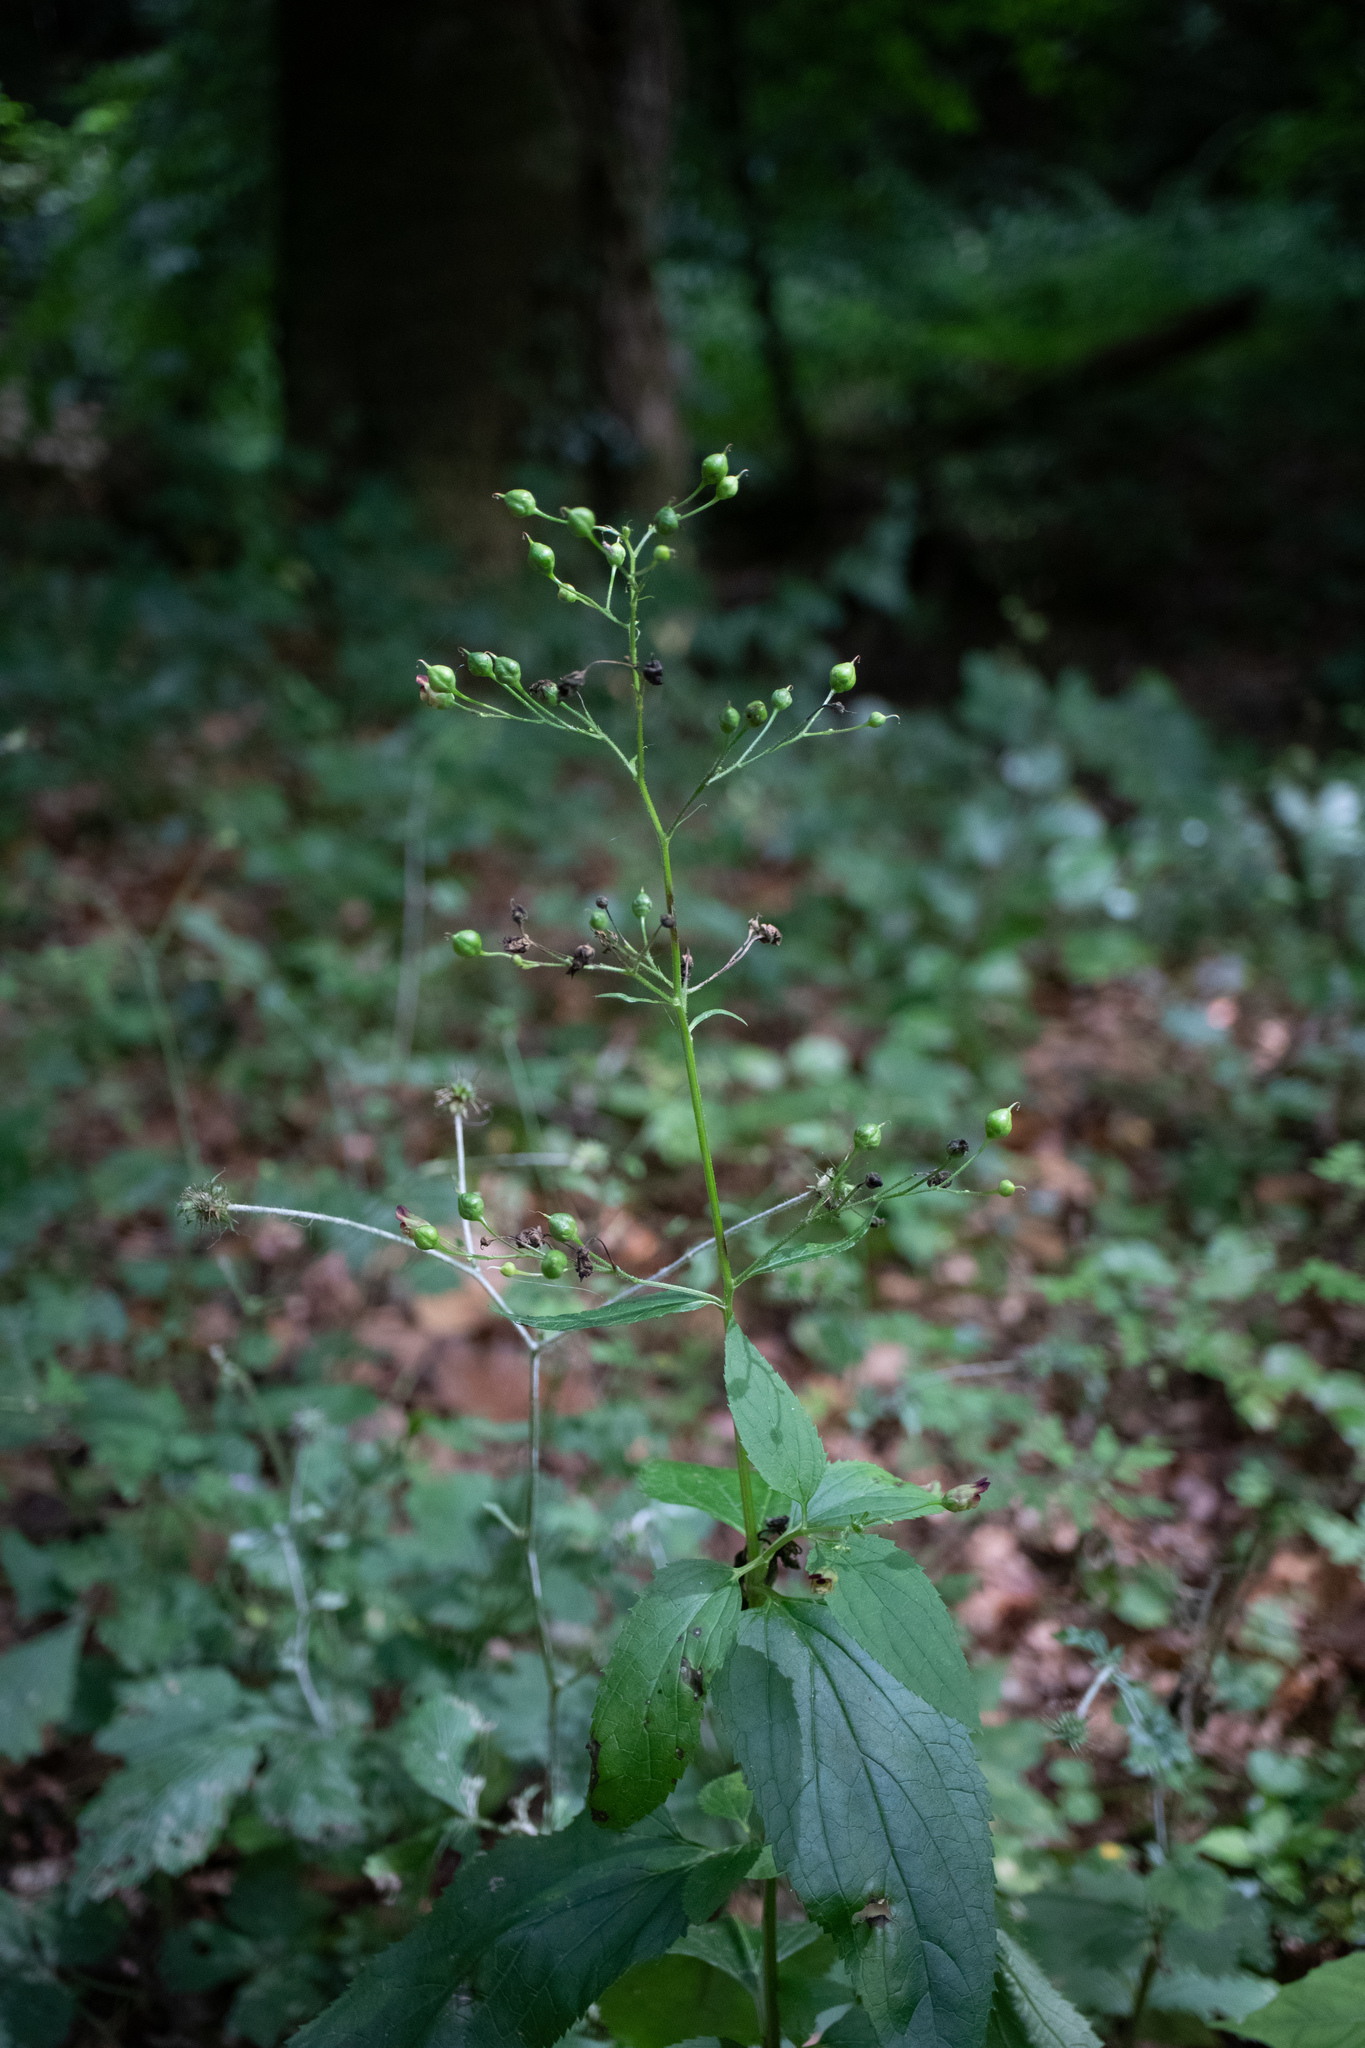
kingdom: Plantae
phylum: Tracheophyta
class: Magnoliopsida
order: Lamiales
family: Scrophulariaceae
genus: Scrophularia
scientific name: Scrophularia nodosa
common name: Common figwort
